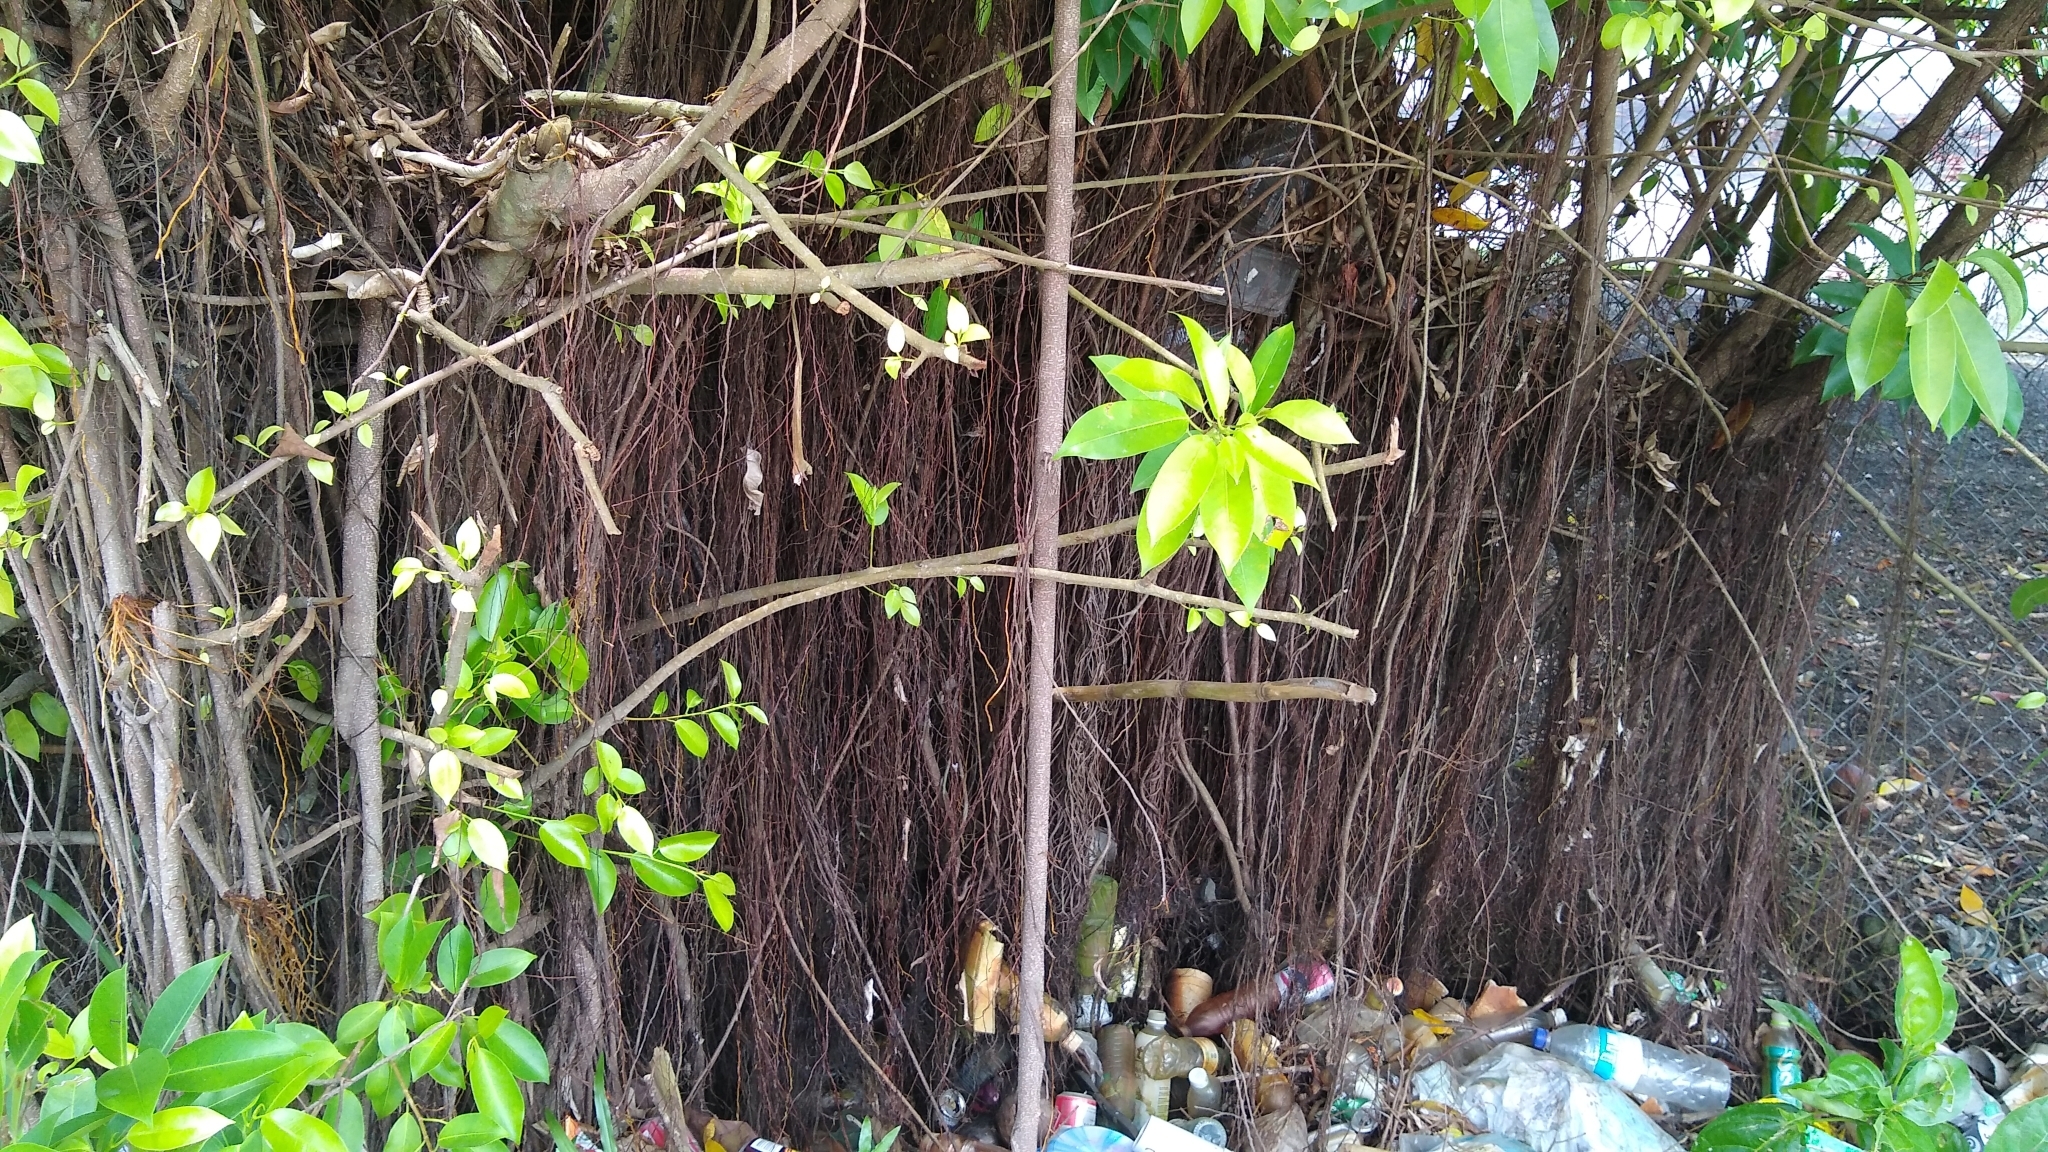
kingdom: Plantae
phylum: Tracheophyta
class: Magnoliopsida
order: Rosales
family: Moraceae
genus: Ficus
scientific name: Ficus prolixa
